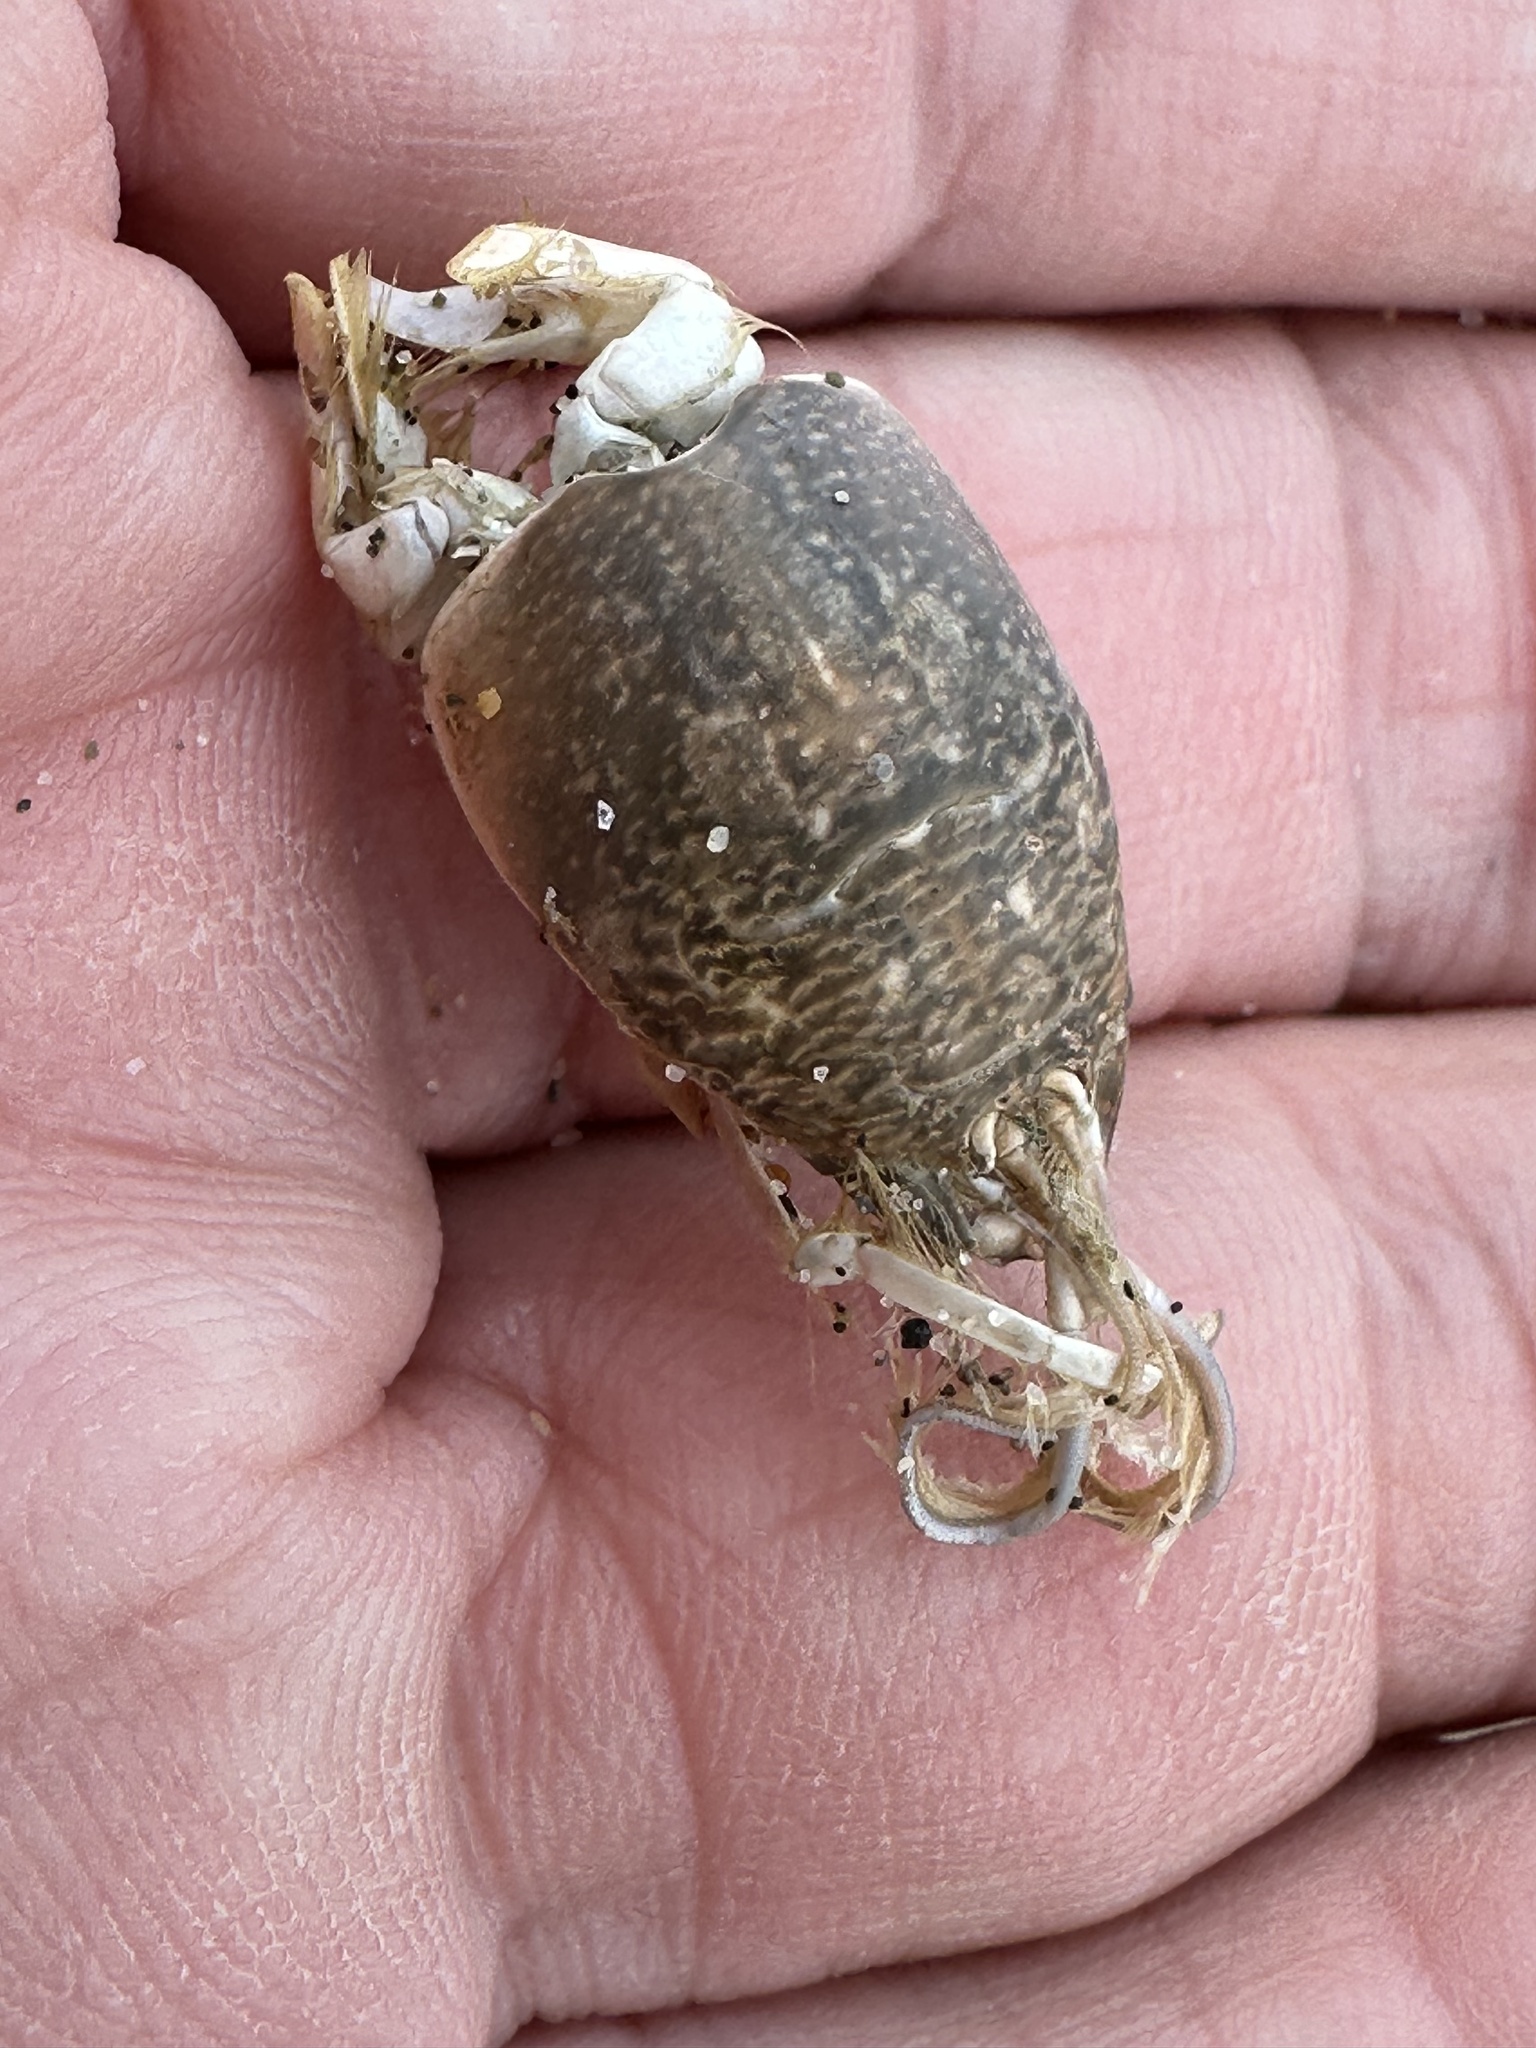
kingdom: Animalia
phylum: Arthropoda
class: Malacostraca
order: Decapoda
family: Hippidae
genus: Emerita
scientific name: Emerita analoga
